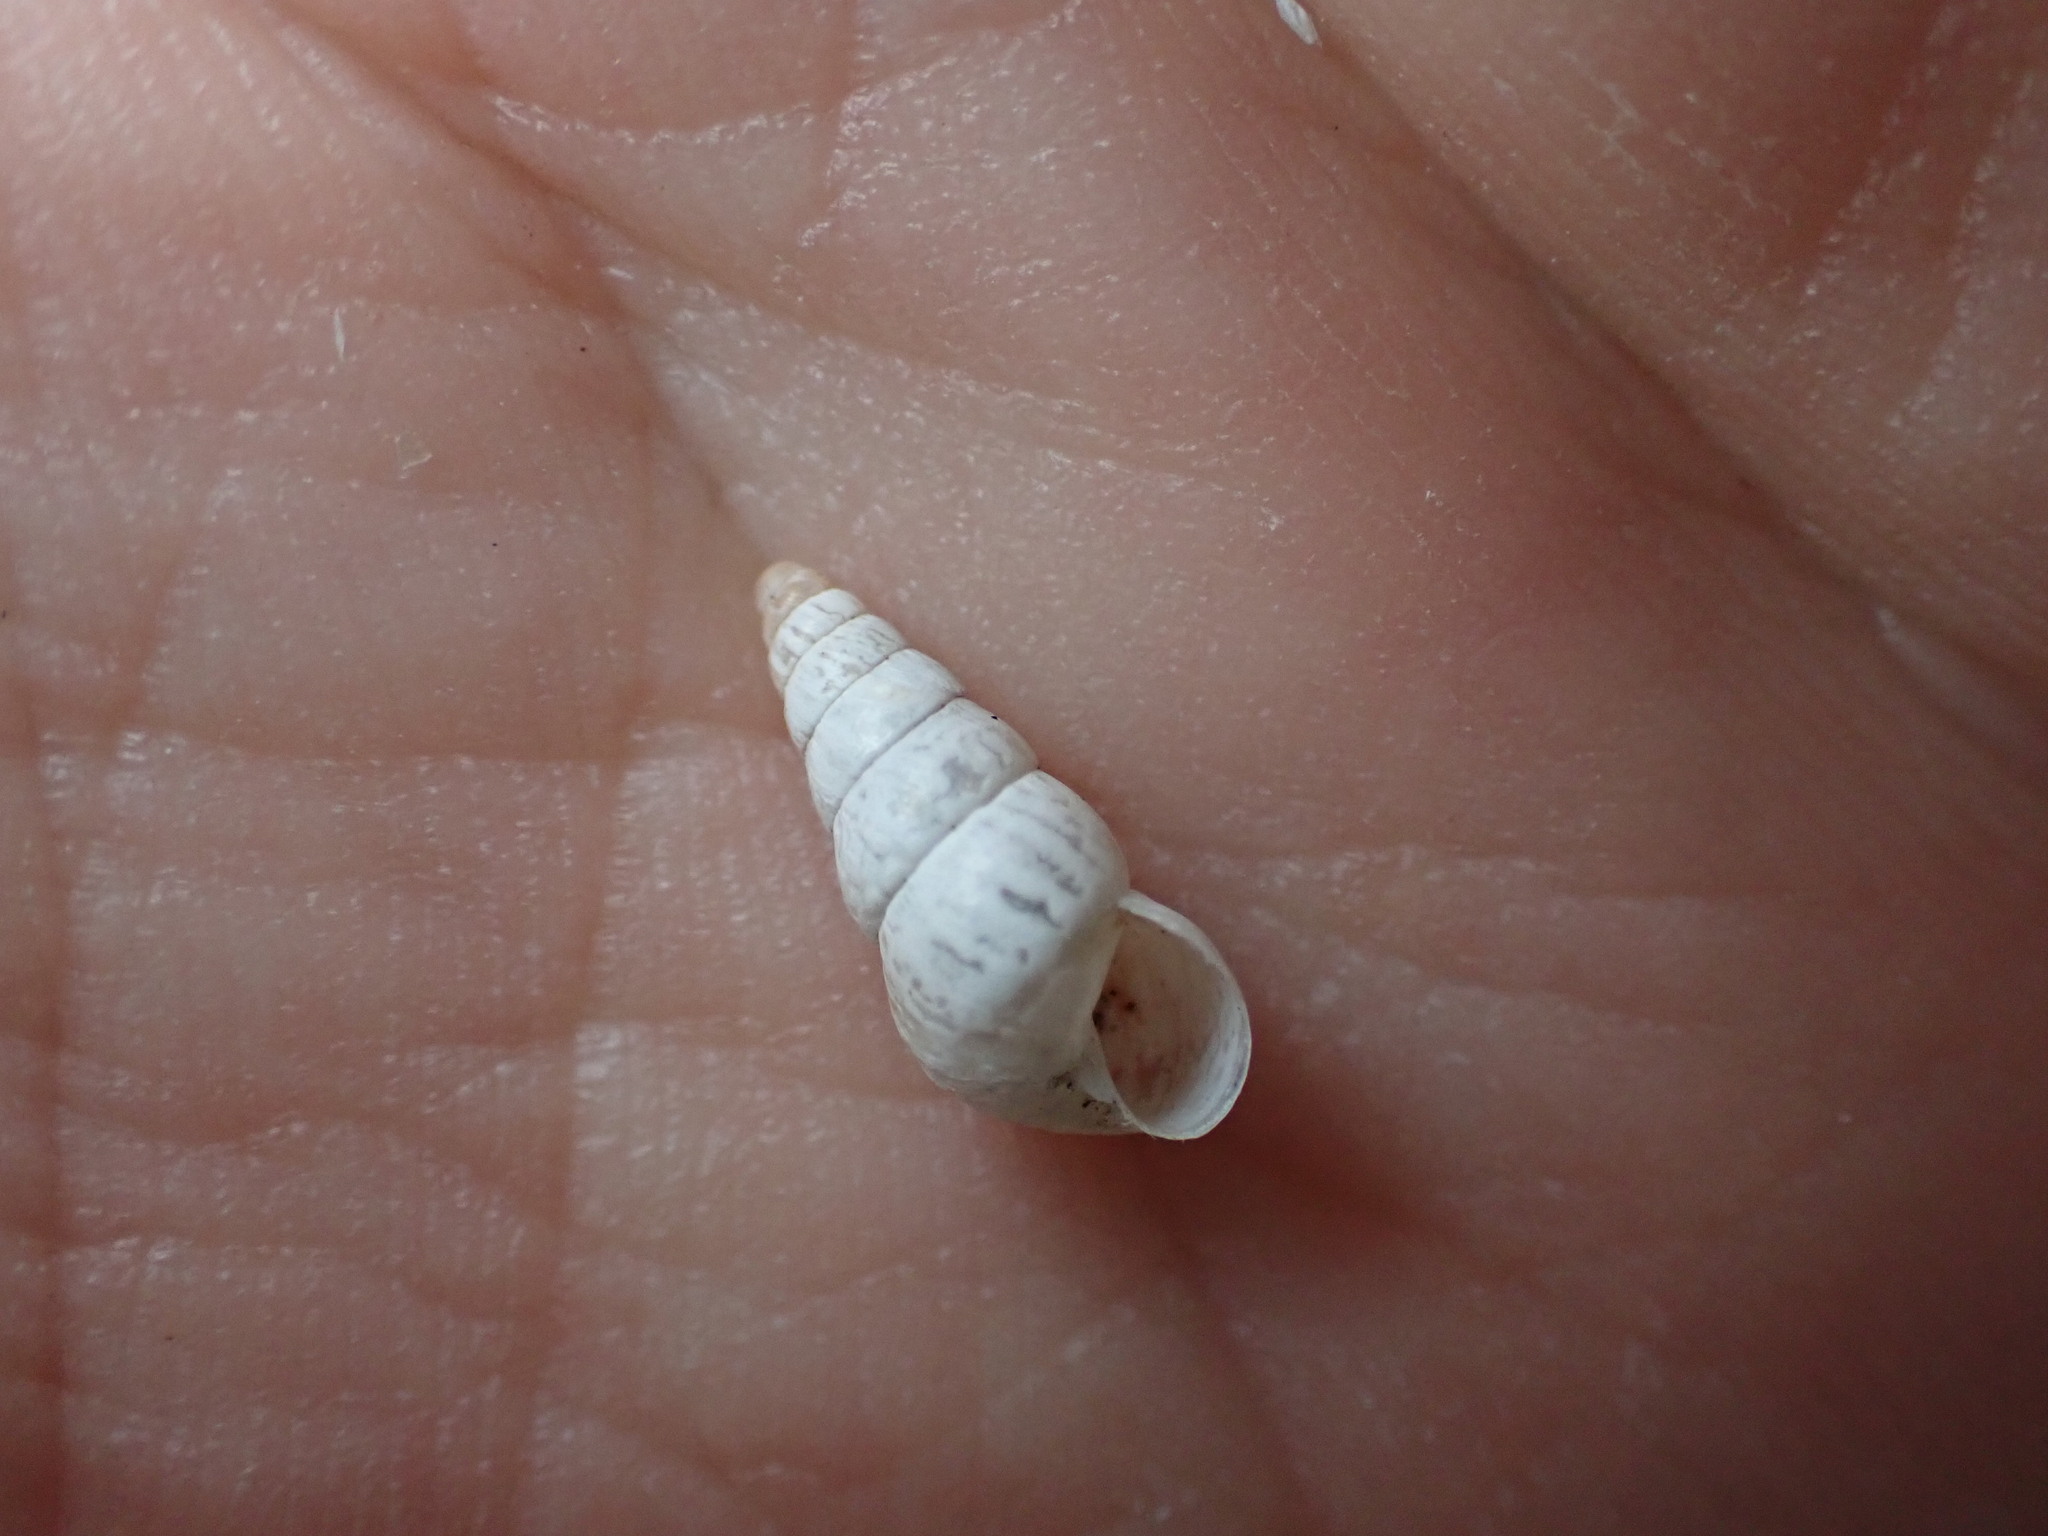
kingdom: Animalia
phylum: Mollusca
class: Gastropoda
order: Stylommatophora
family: Geomitridae
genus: Cochlicella
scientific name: Cochlicella acuta
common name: Pointed snail
